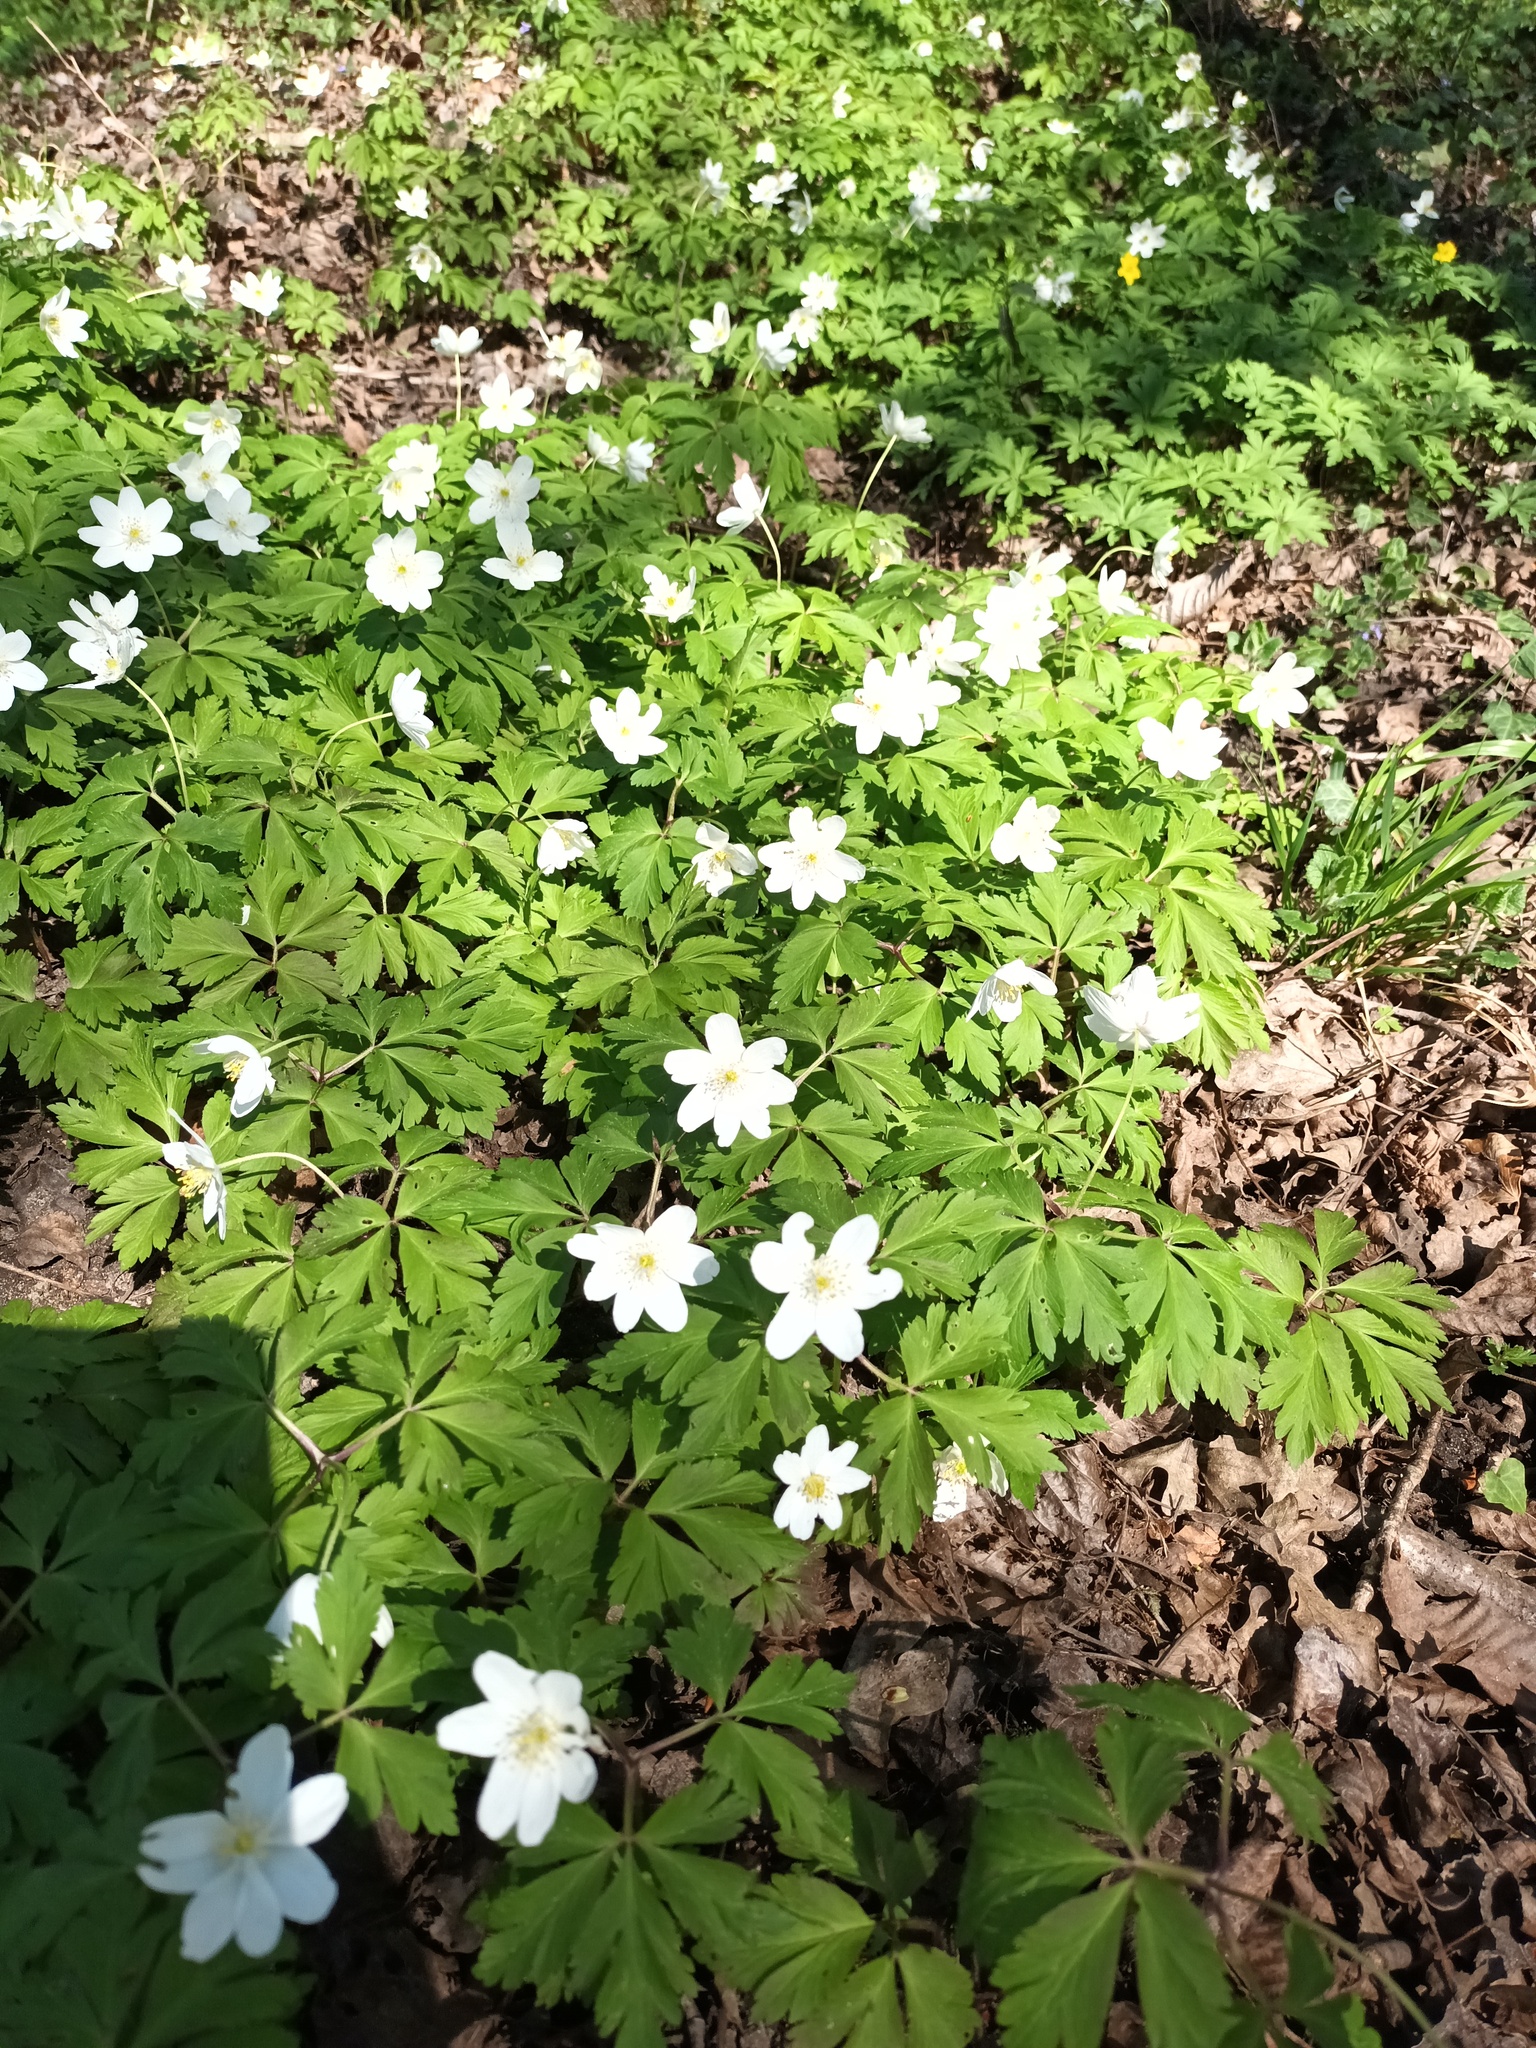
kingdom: Plantae
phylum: Tracheophyta
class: Magnoliopsida
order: Ranunculales
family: Ranunculaceae
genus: Anemone
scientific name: Anemone nemorosa
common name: Wood anemone
